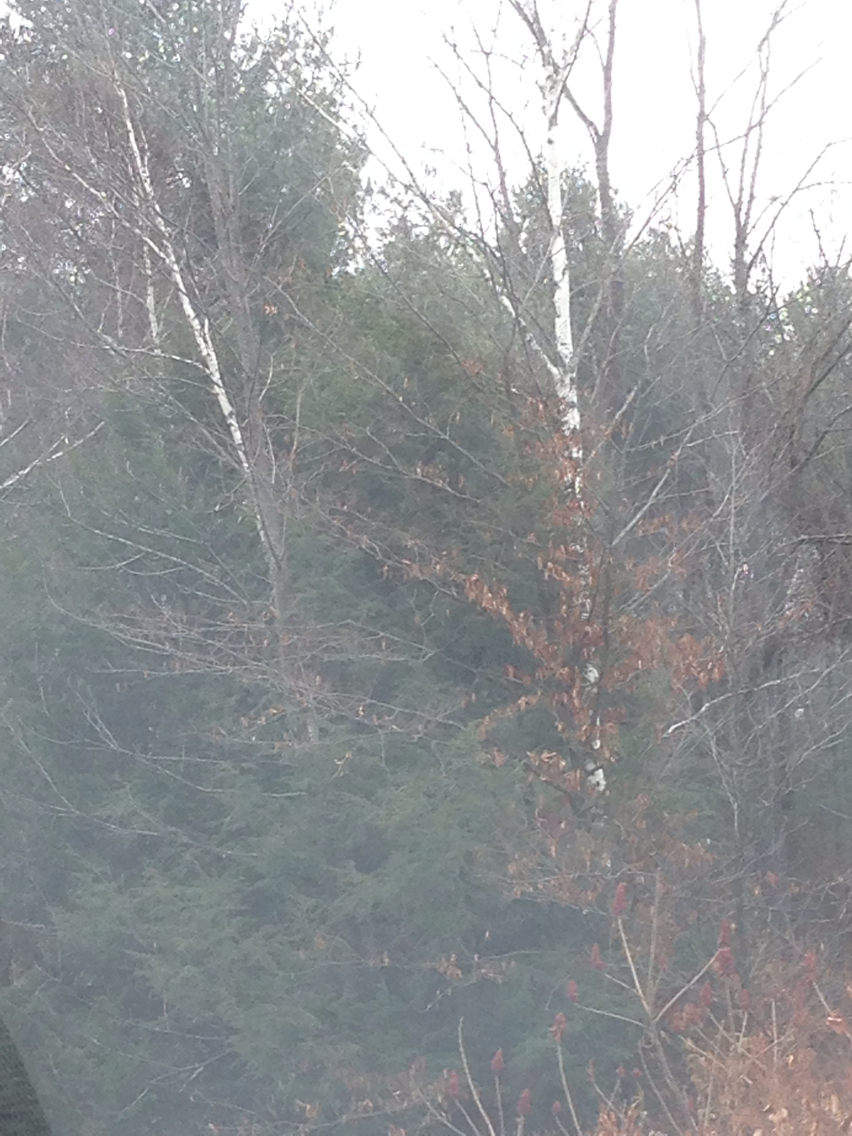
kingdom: Plantae
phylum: Tracheophyta
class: Magnoliopsida
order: Fagales
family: Betulaceae
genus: Betula
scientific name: Betula papyrifera
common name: Paper birch
